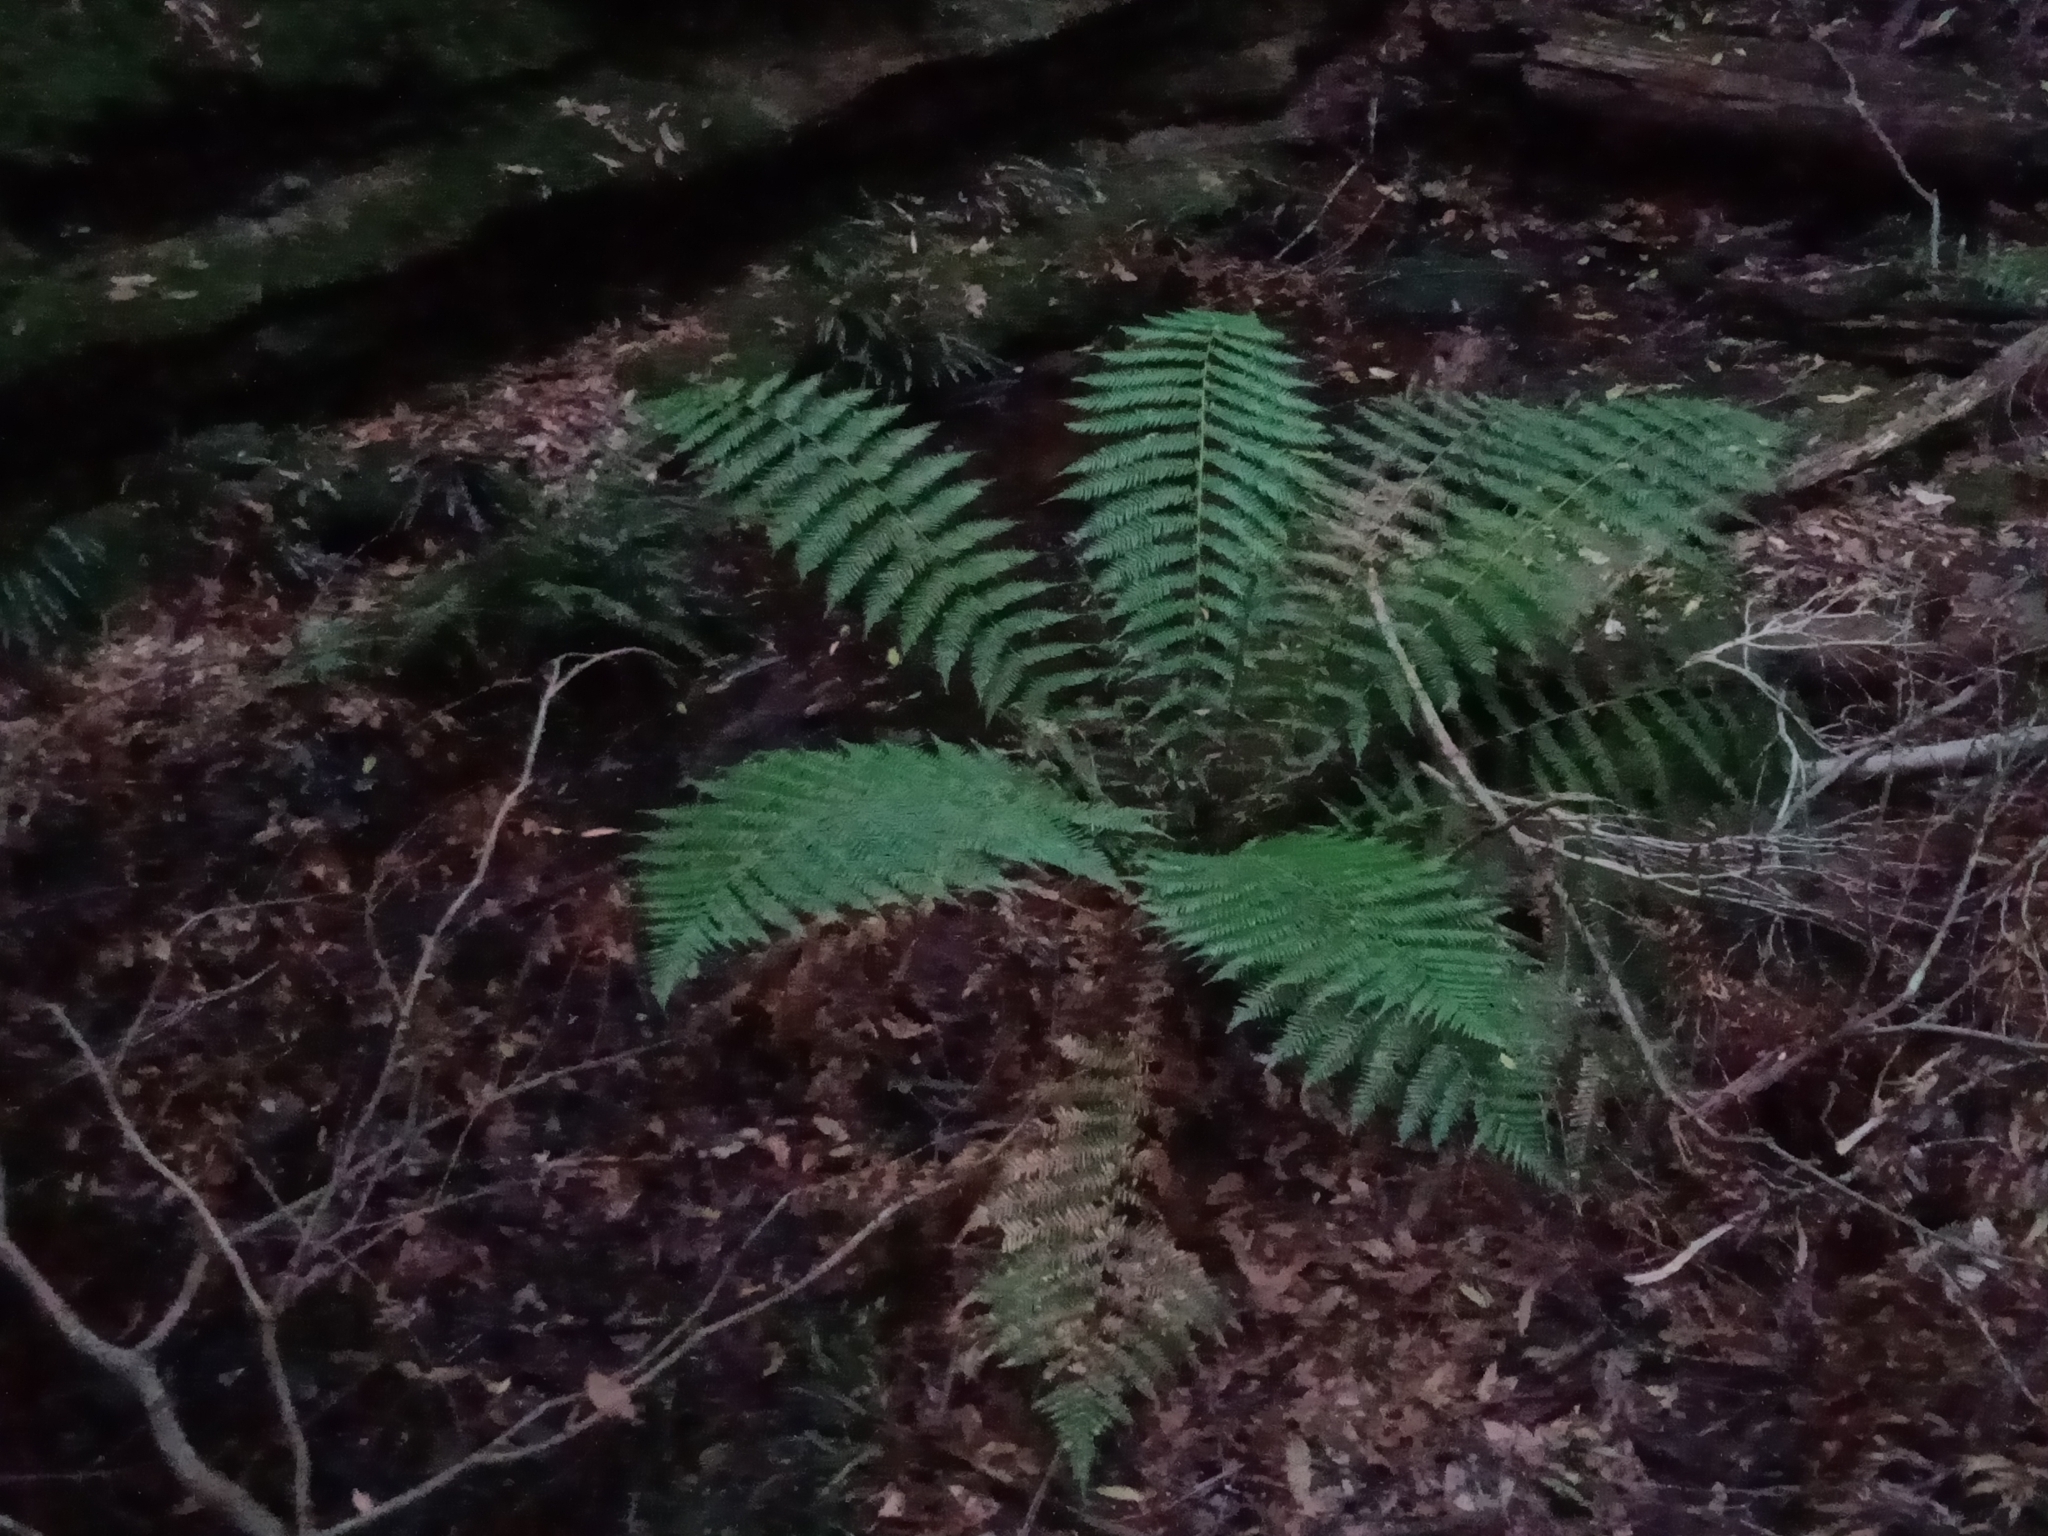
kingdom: Plantae
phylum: Tracheophyta
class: Polypodiopsida
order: Cyatheales
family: Dicksoniaceae
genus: Dicksonia
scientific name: Dicksonia antarctica
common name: Australian treefern
